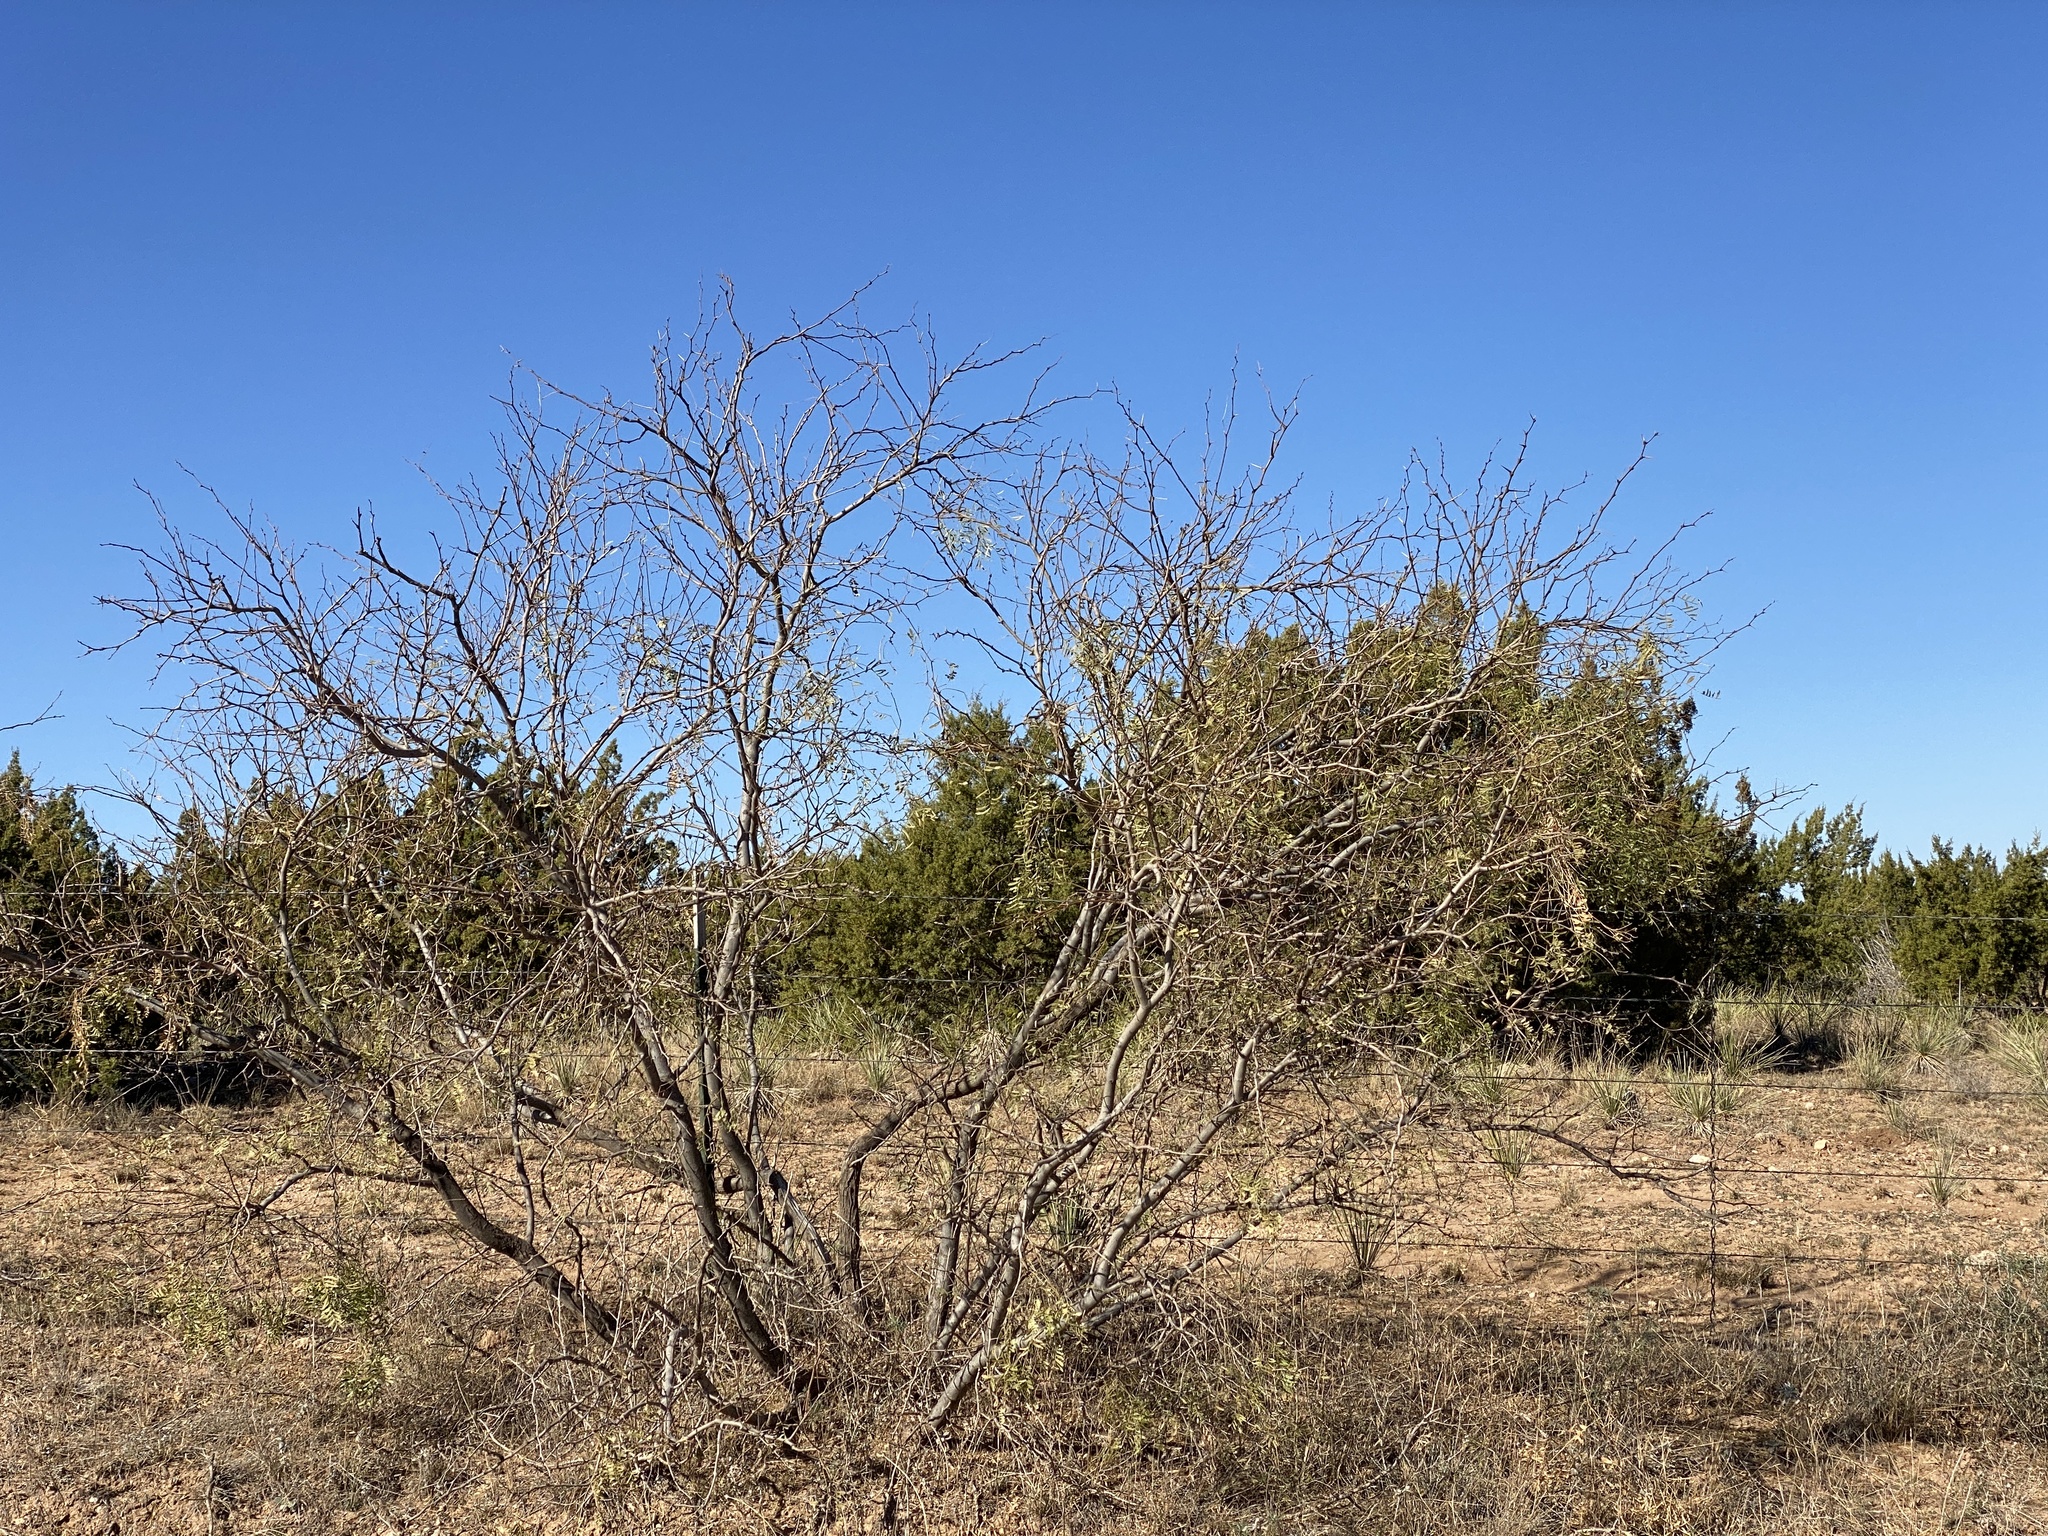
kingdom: Plantae
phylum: Tracheophyta
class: Magnoliopsida
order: Fabales
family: Fabaceae
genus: Prosopis
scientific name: Prosopis glandulosa
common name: Honey mesquite
